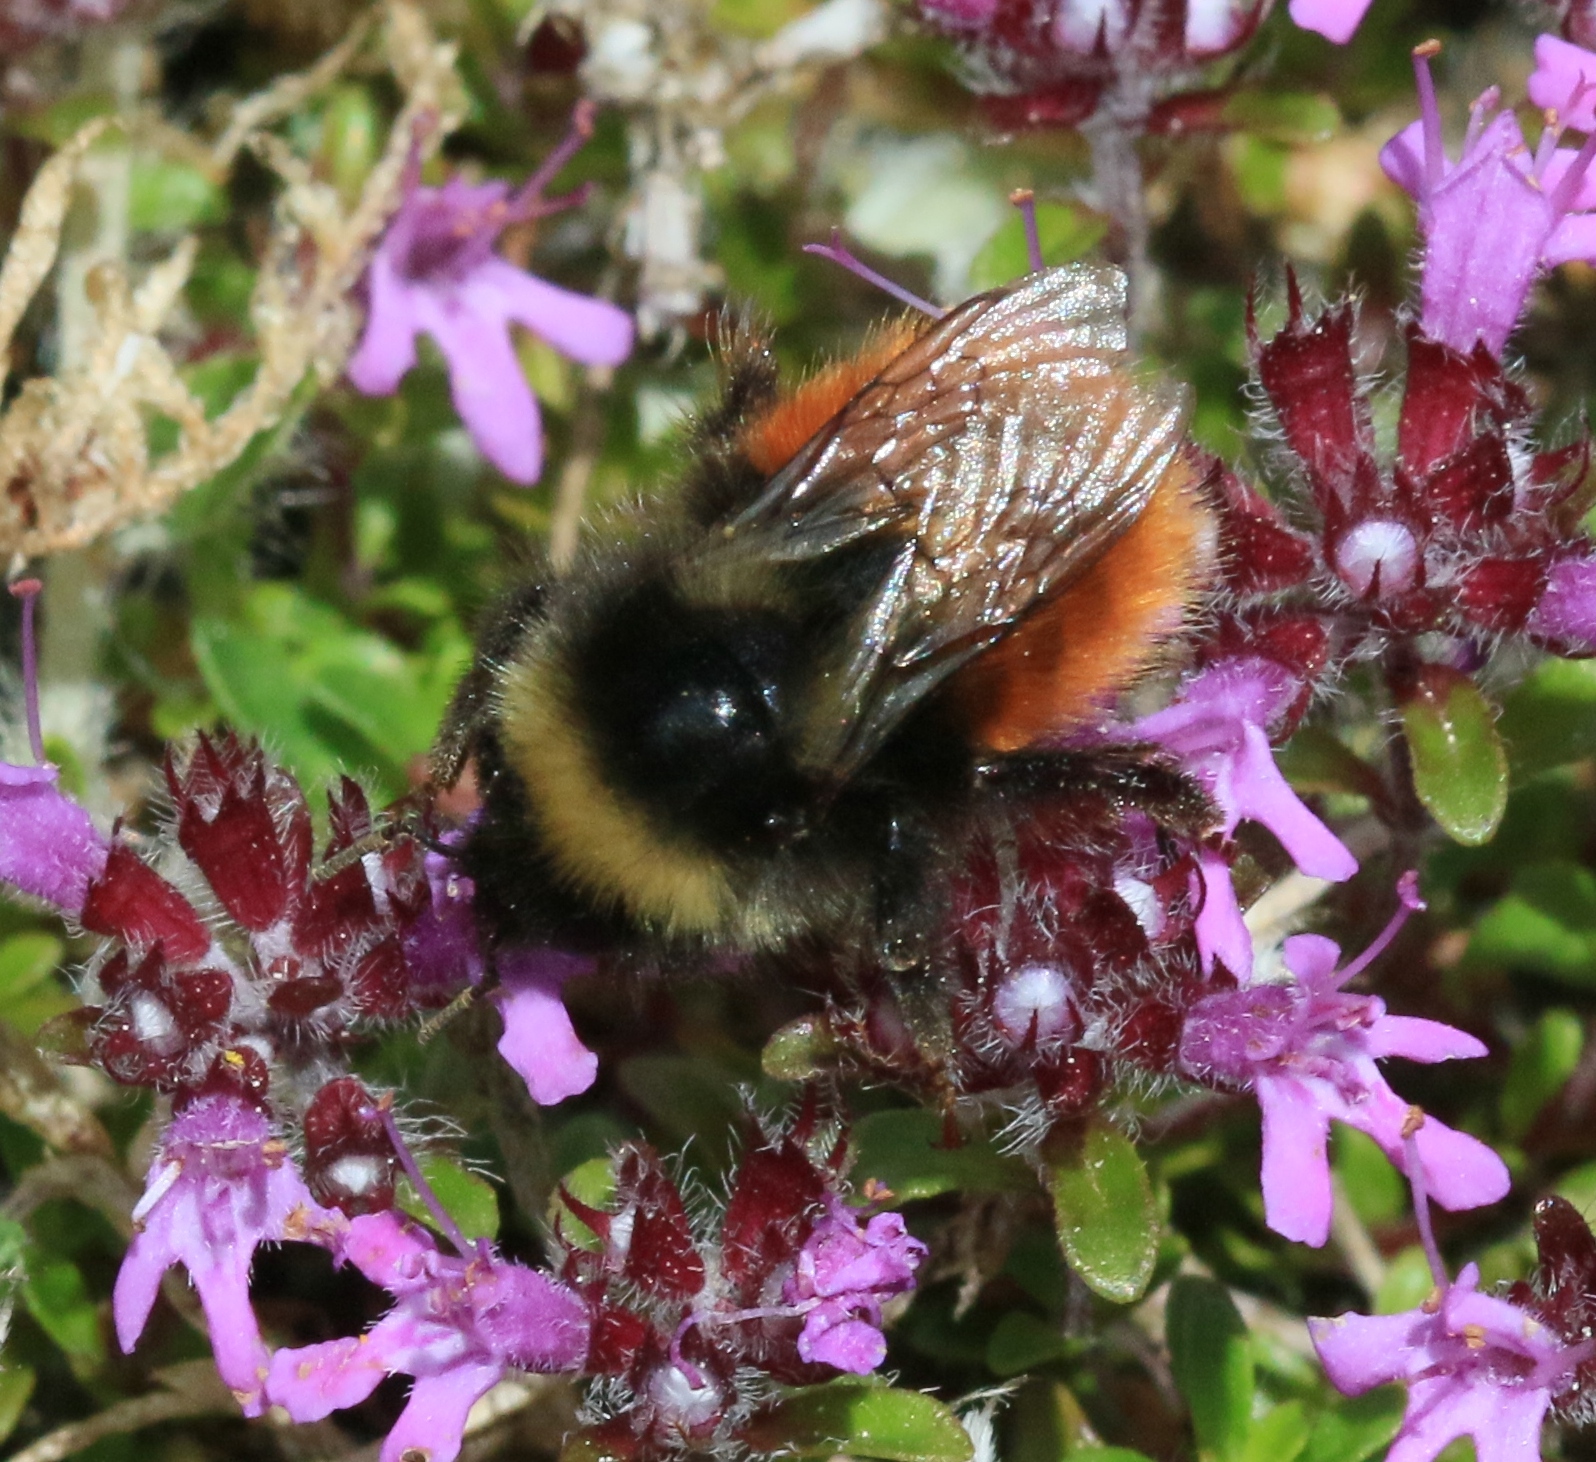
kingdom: Animalia
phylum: Arthropoda
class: Insecta
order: Hymenoptera
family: Apidae
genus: Bombus
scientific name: Bombus monticola
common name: Bilberry humble-bee
